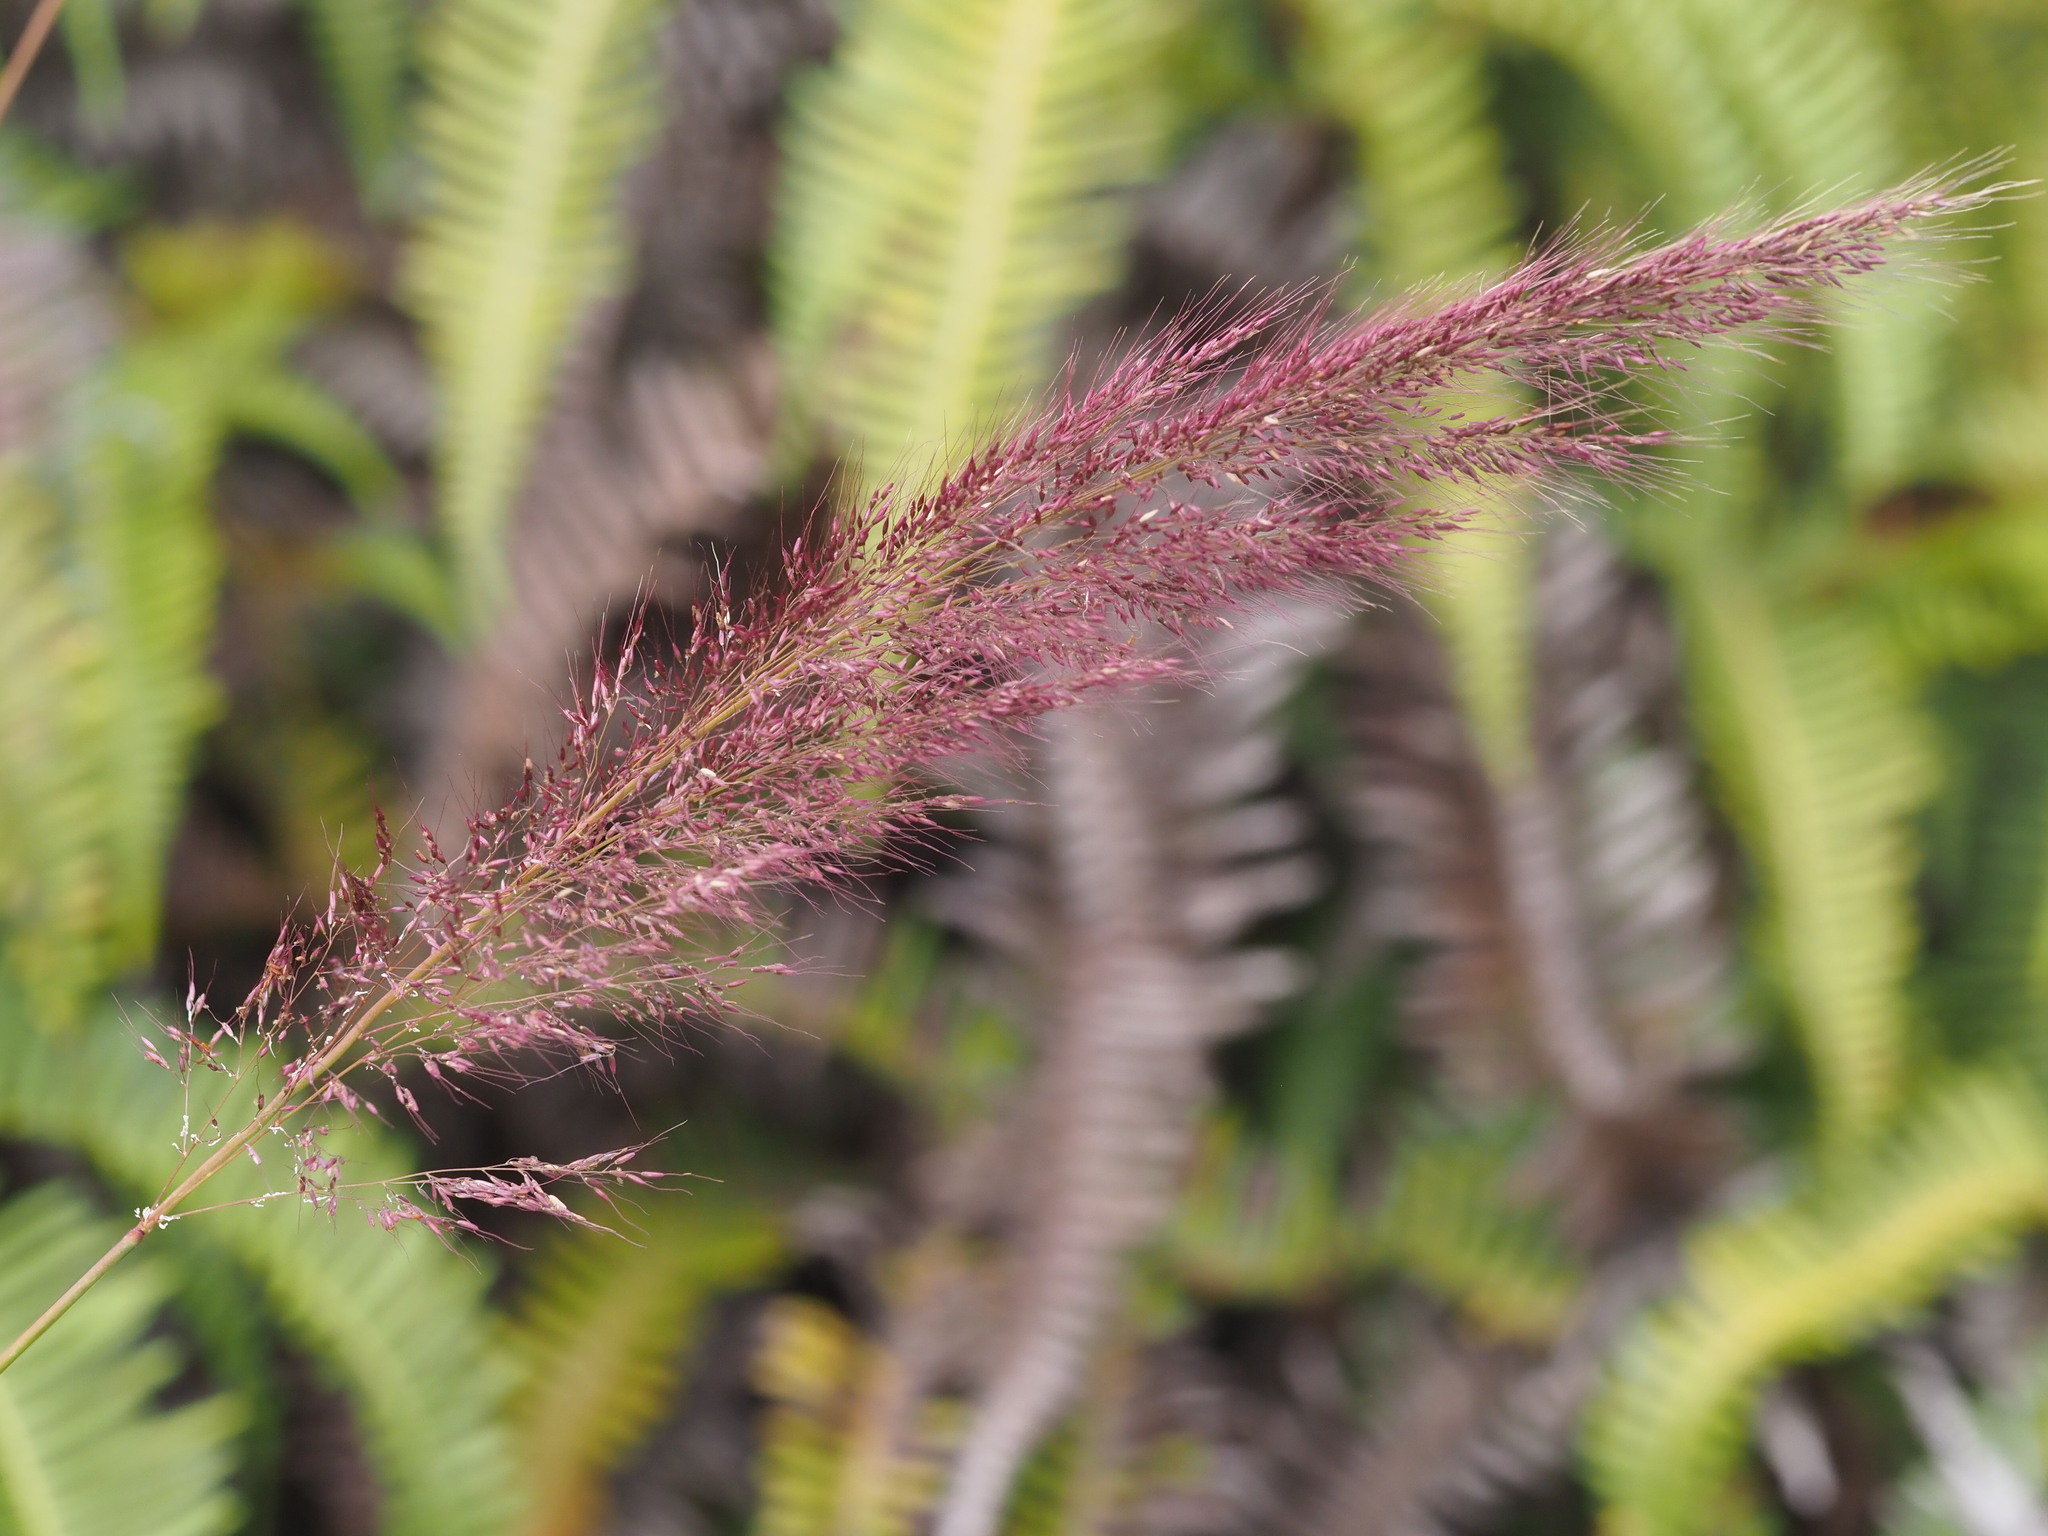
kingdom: Plantae
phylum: Tracheophyta
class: Liliopsida
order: Poales
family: Poaceae
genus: Melinis
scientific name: Melinis minutiflora
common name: Molassesgrass
